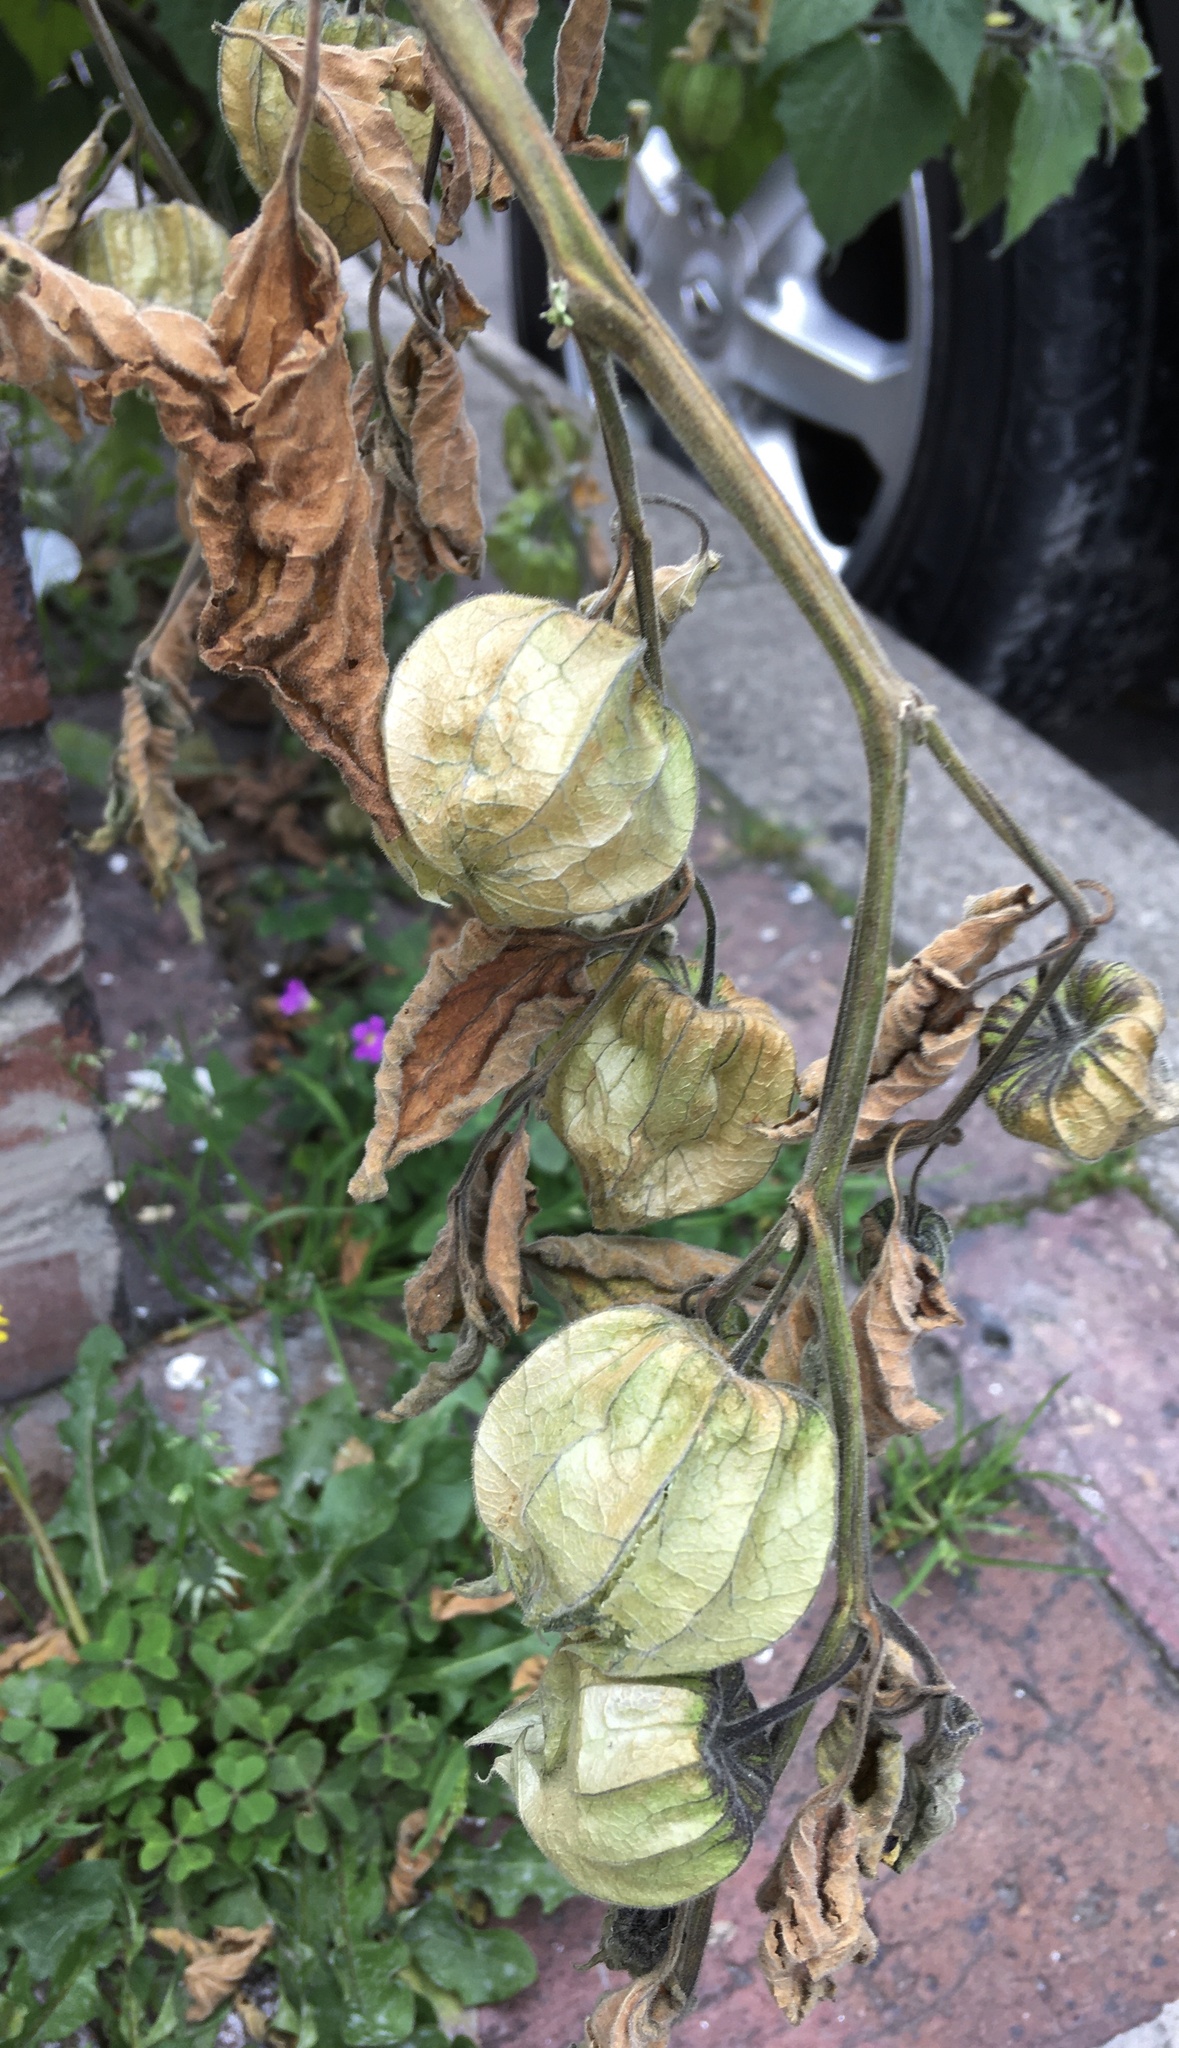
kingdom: Plantae
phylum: Tracheophyta
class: Magnoliopsida
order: Solanales
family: Solanaceae
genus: Physalis
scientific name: Physalis peruviana
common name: Cape-gooseberry
